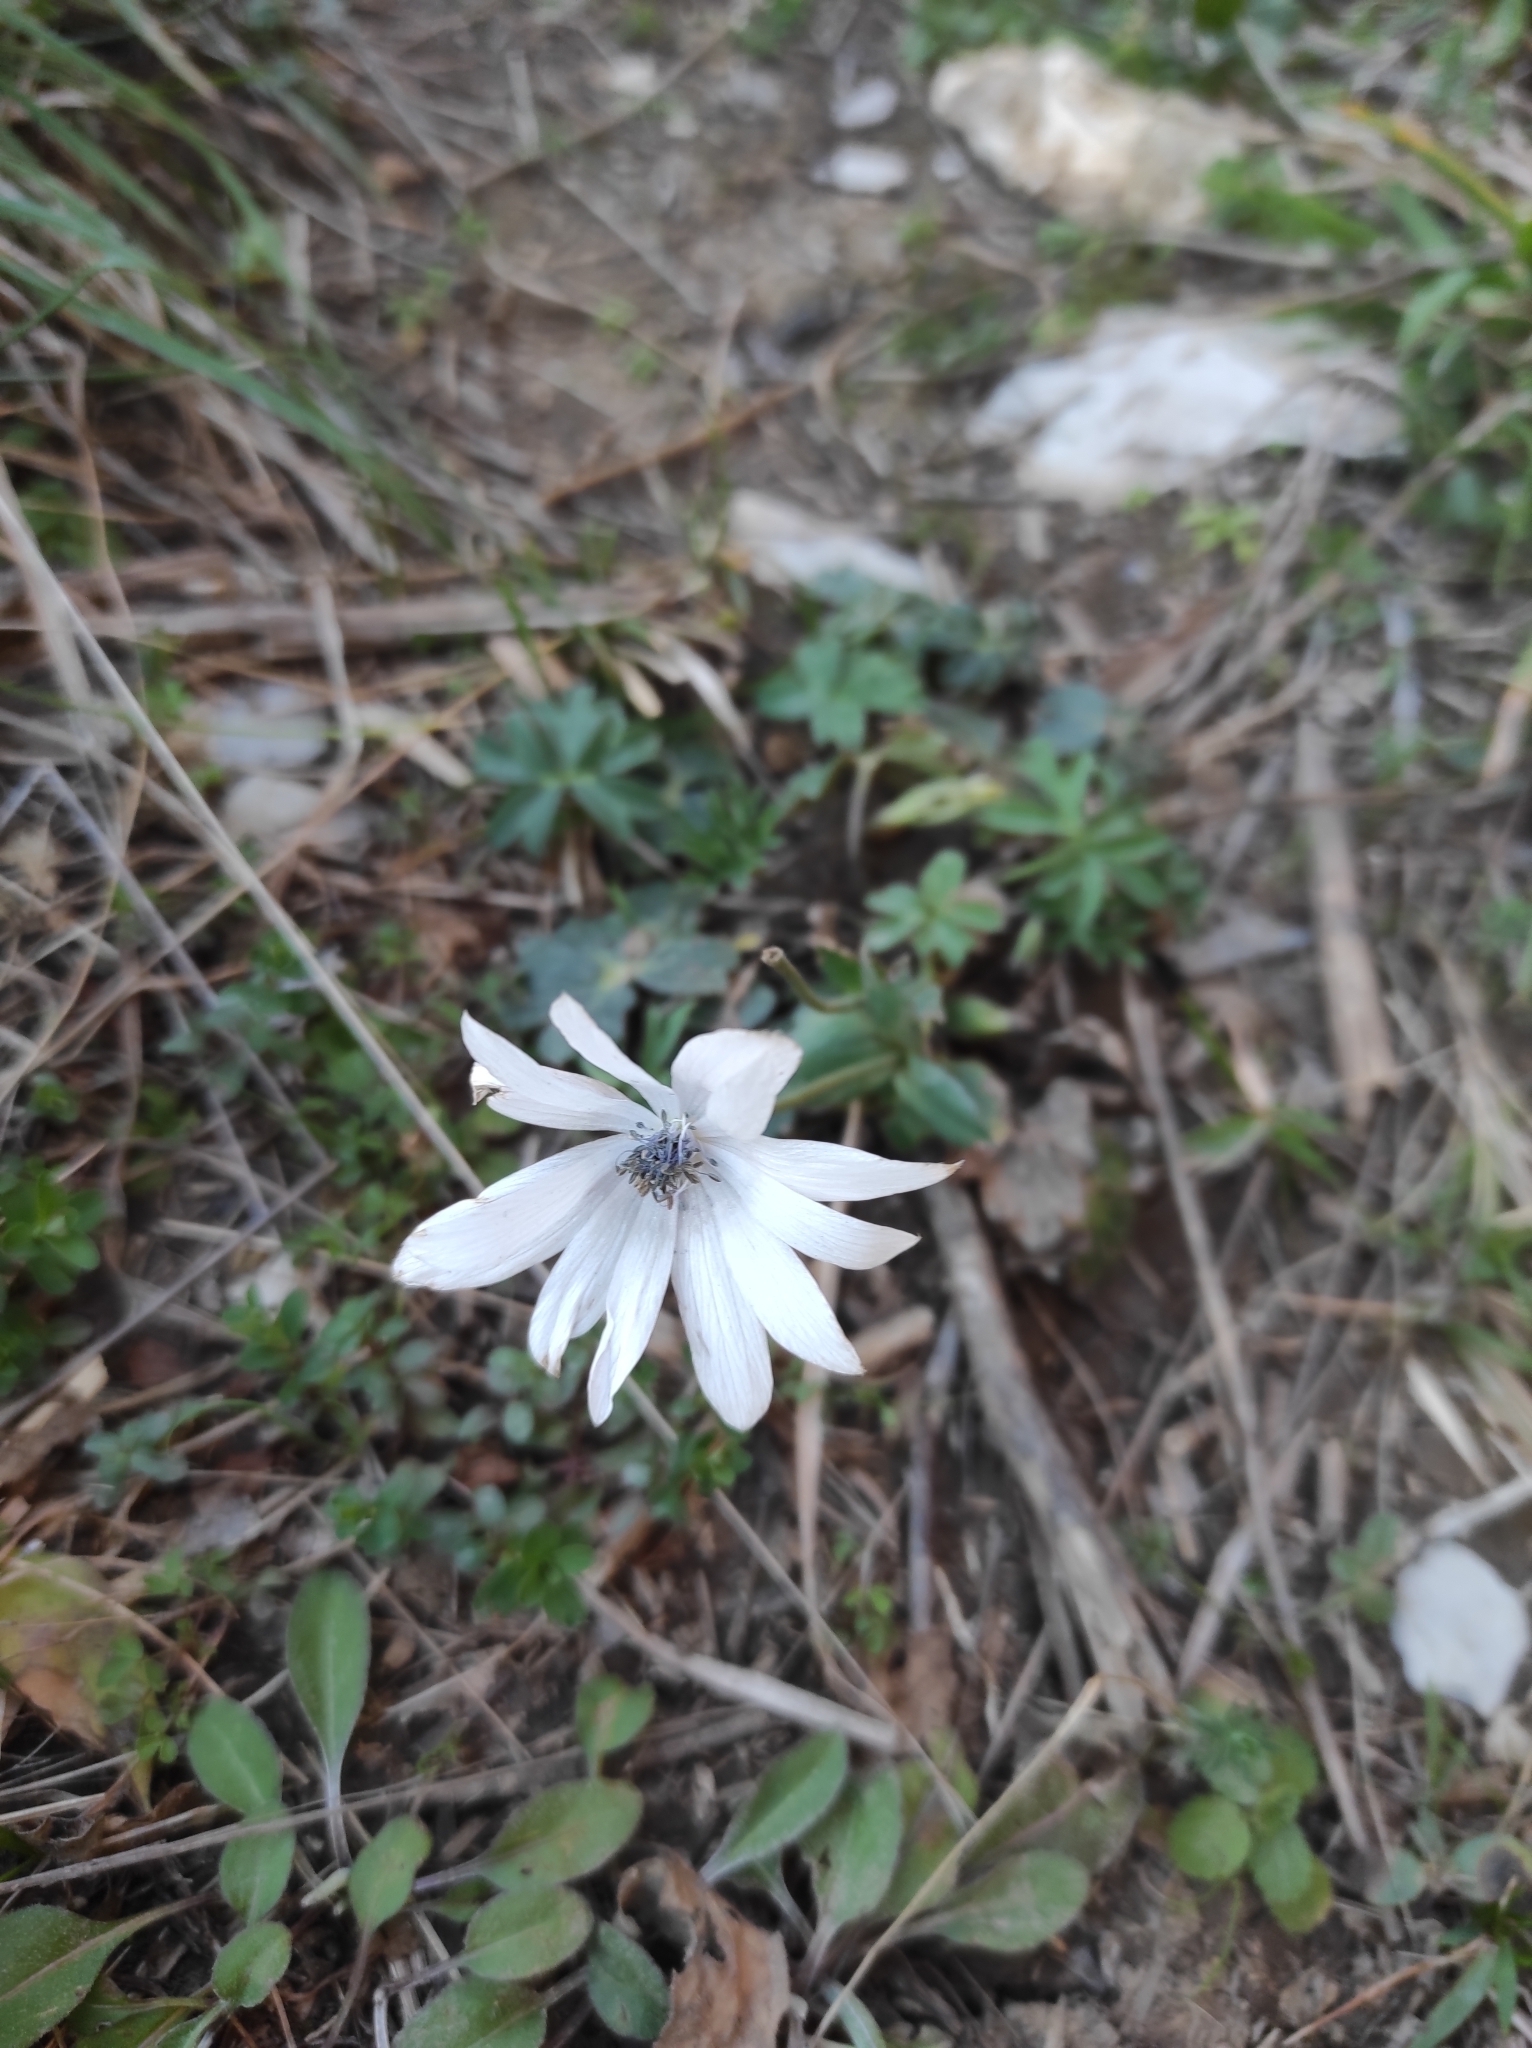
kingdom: Plantae
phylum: Tracheophyta
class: Magnoliopsida
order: Ranunculales
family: Ranunculaceae
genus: Anemone
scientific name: Anemone hortensis
